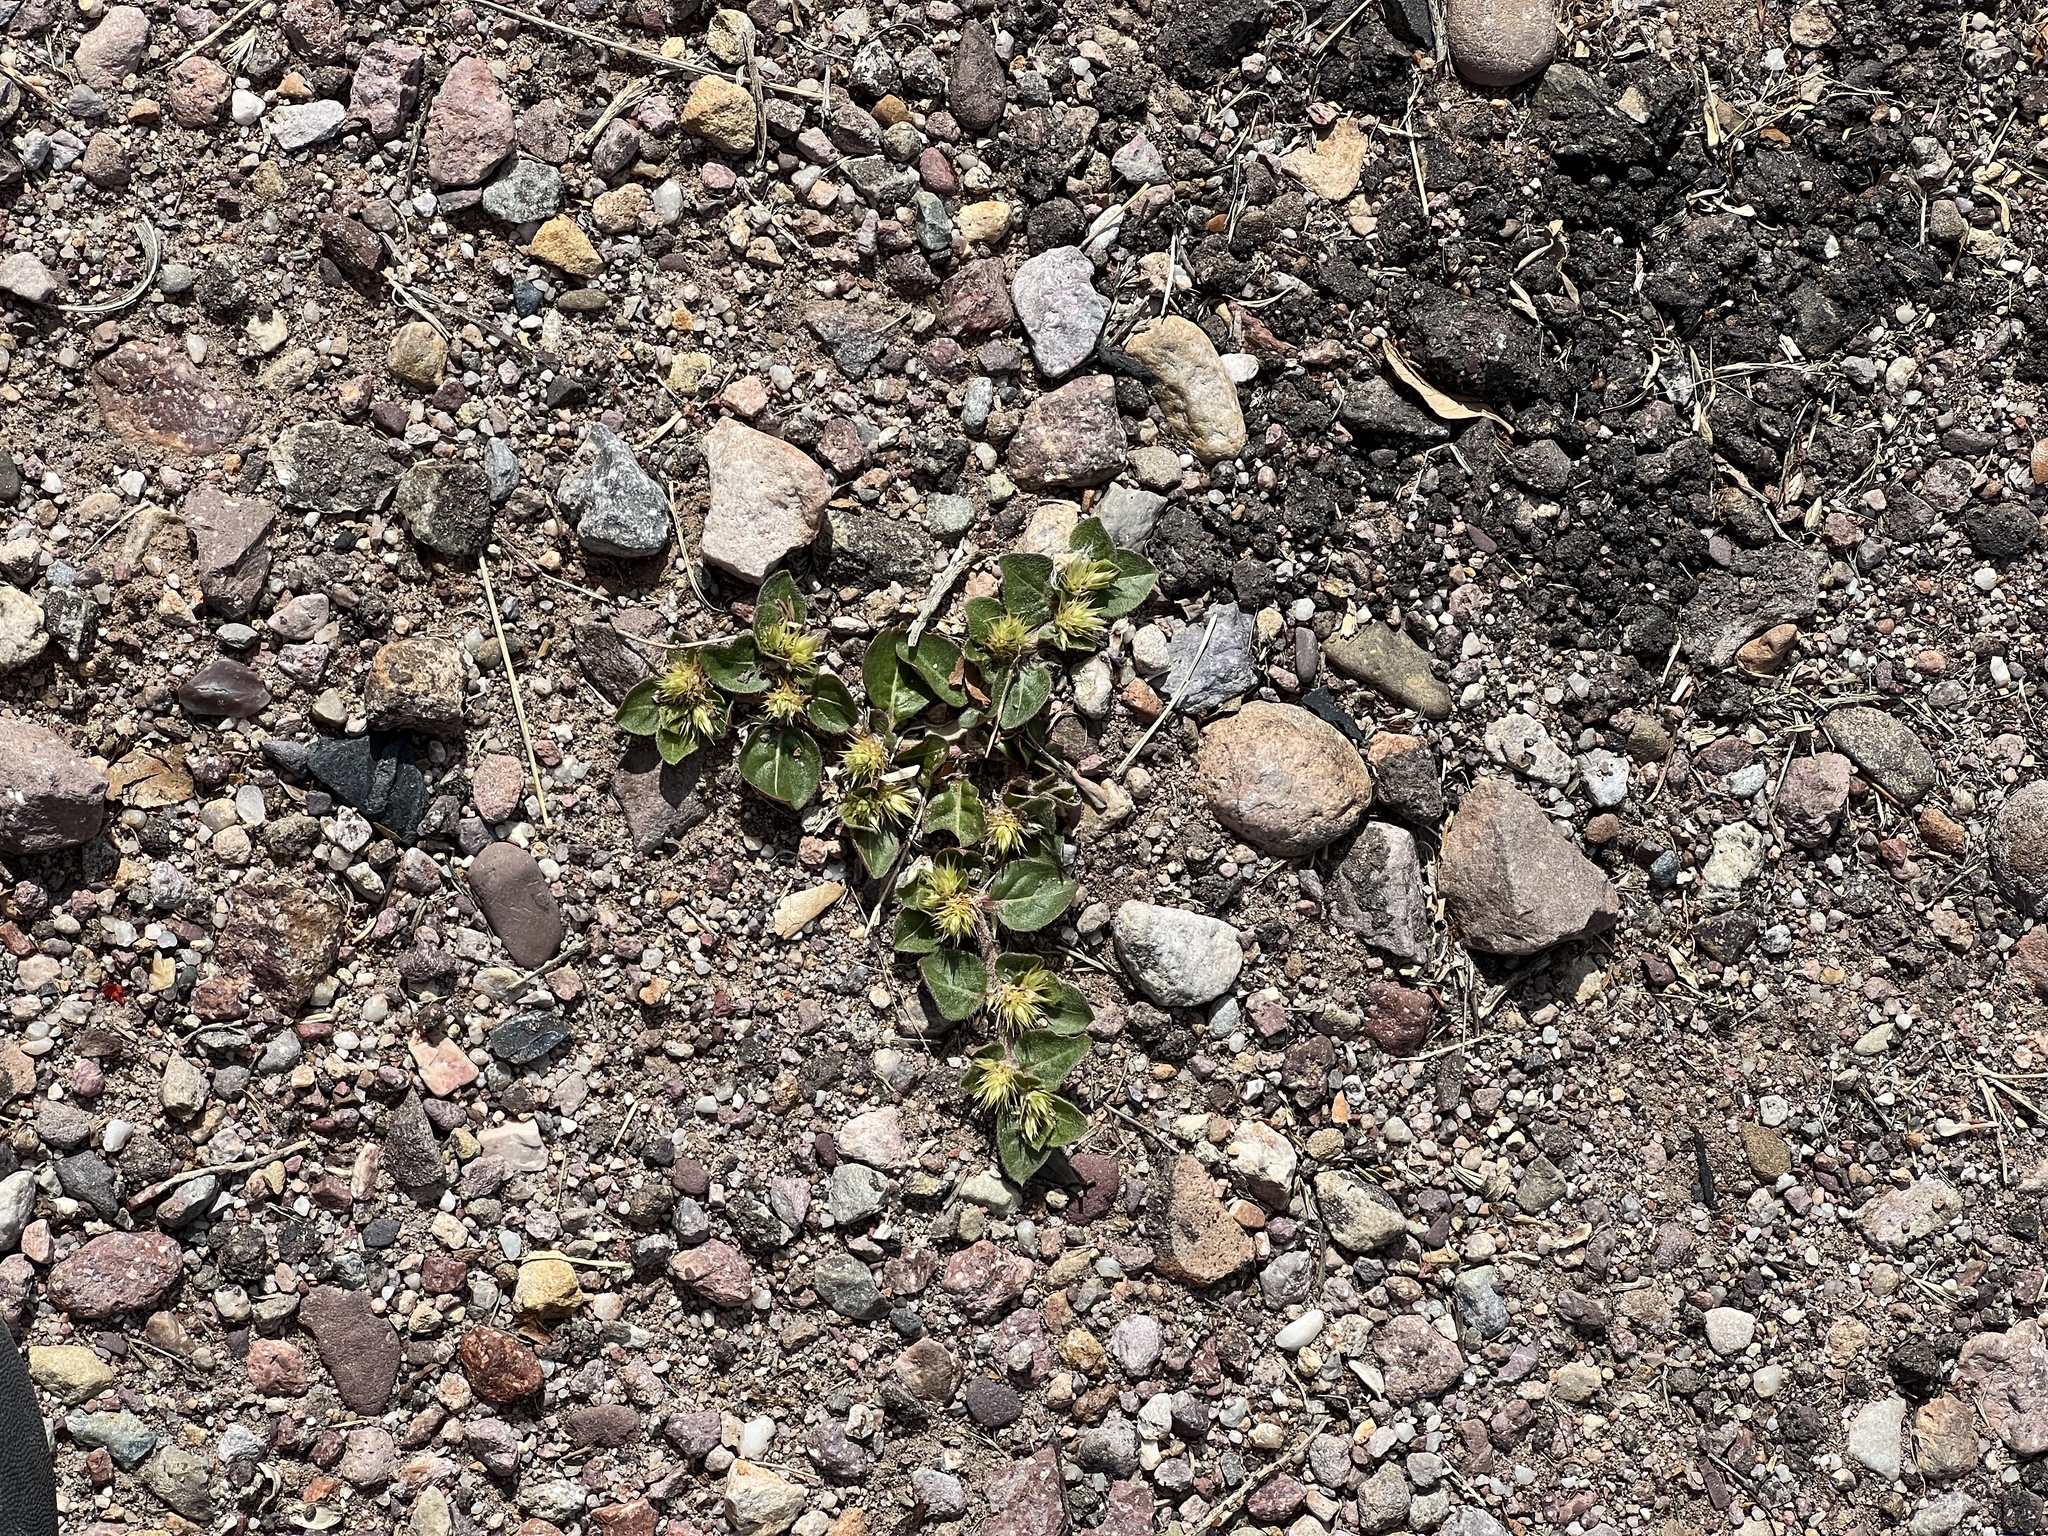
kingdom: Plantae
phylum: Tracheophyta
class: Magnoliopsida
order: Caryophyllales
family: Amaranthaceae
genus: Alternanthera
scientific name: Alternanthera pungens
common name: Khakiweed
